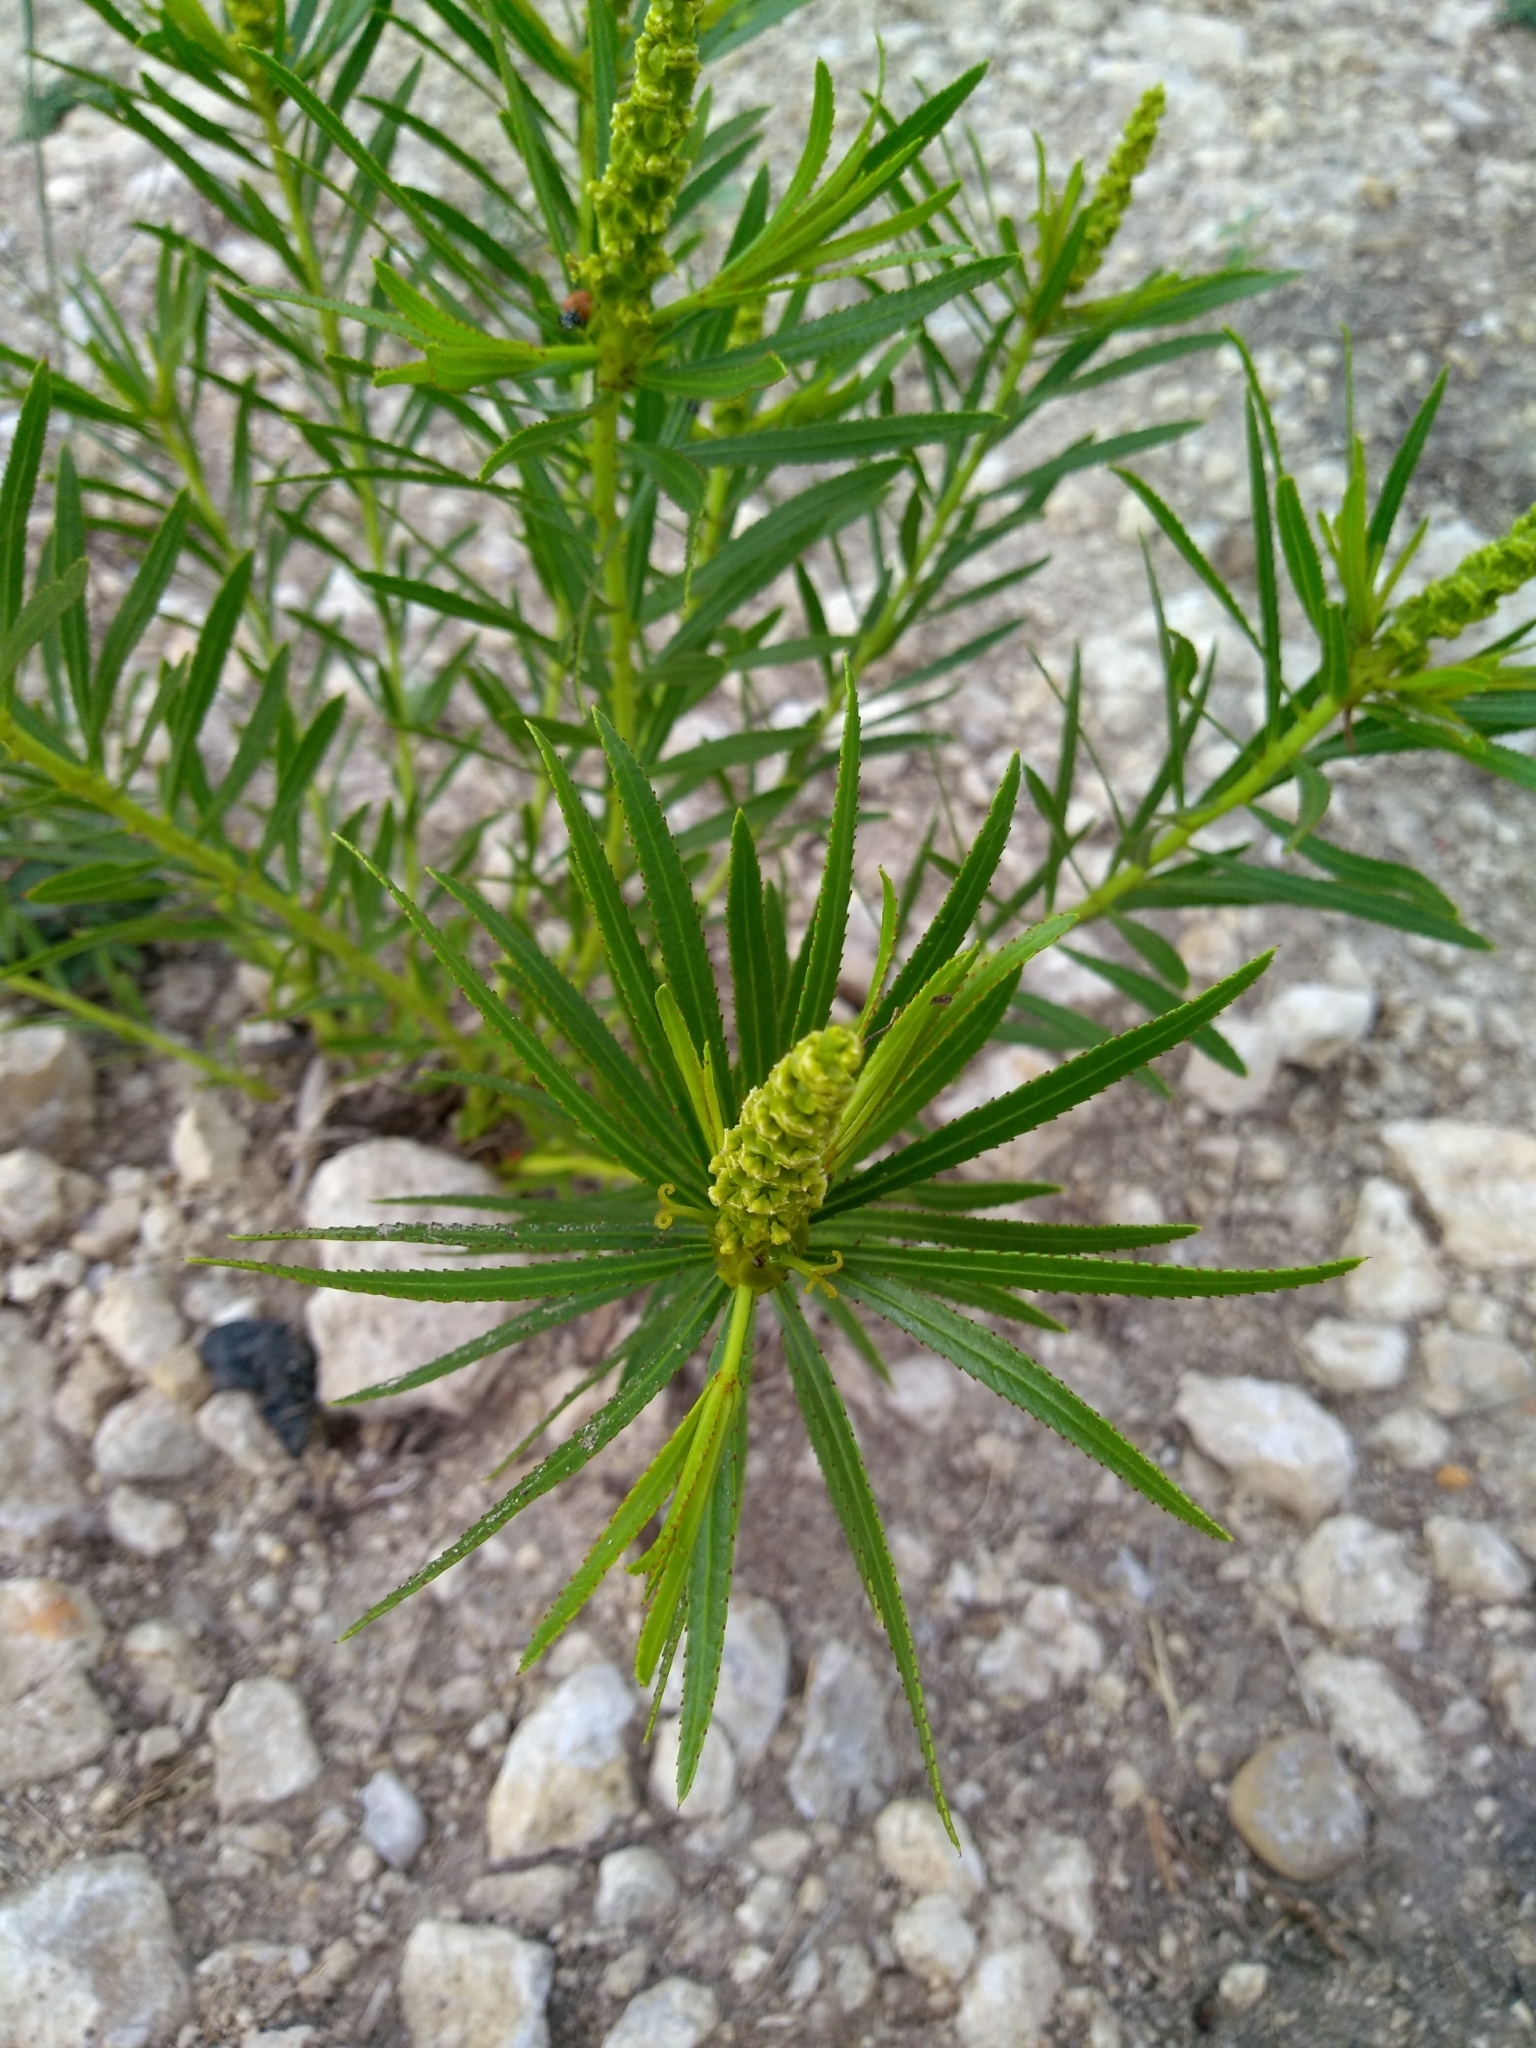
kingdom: Plantae
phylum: Tracheophyta
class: Magnoliopsida
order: Malpighiales
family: Euphorbiaceae
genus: Stillingia
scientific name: Stillingia texana
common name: Texas stillingia
